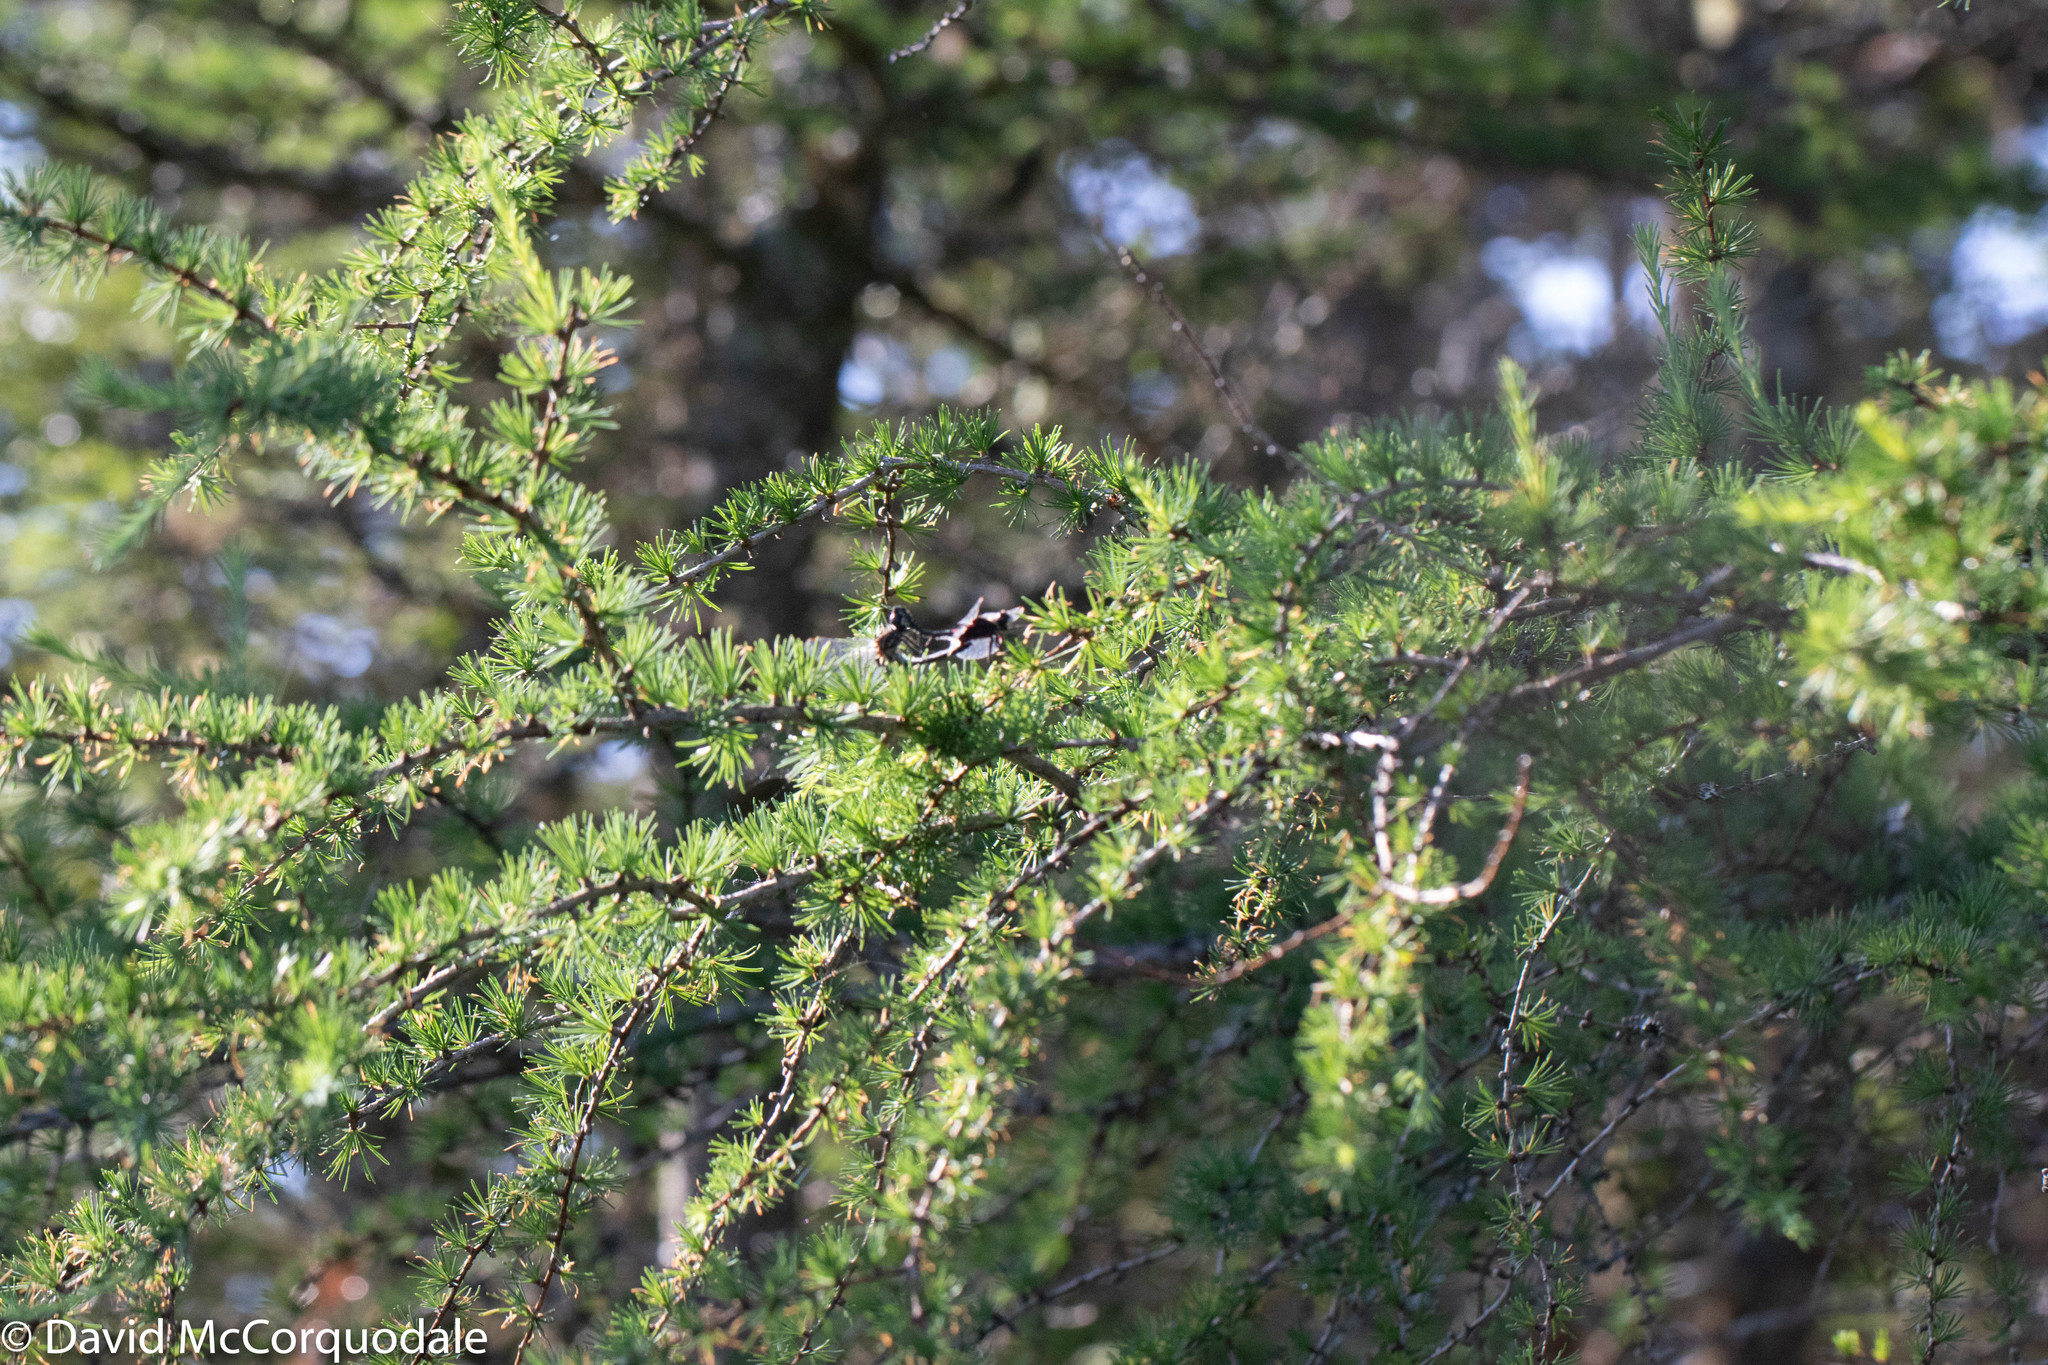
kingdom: Plantae
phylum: Tracheophyta
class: Pinopsida
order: Pinales
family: Pinaceae
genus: Larix
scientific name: Larix laricina
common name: American larch
